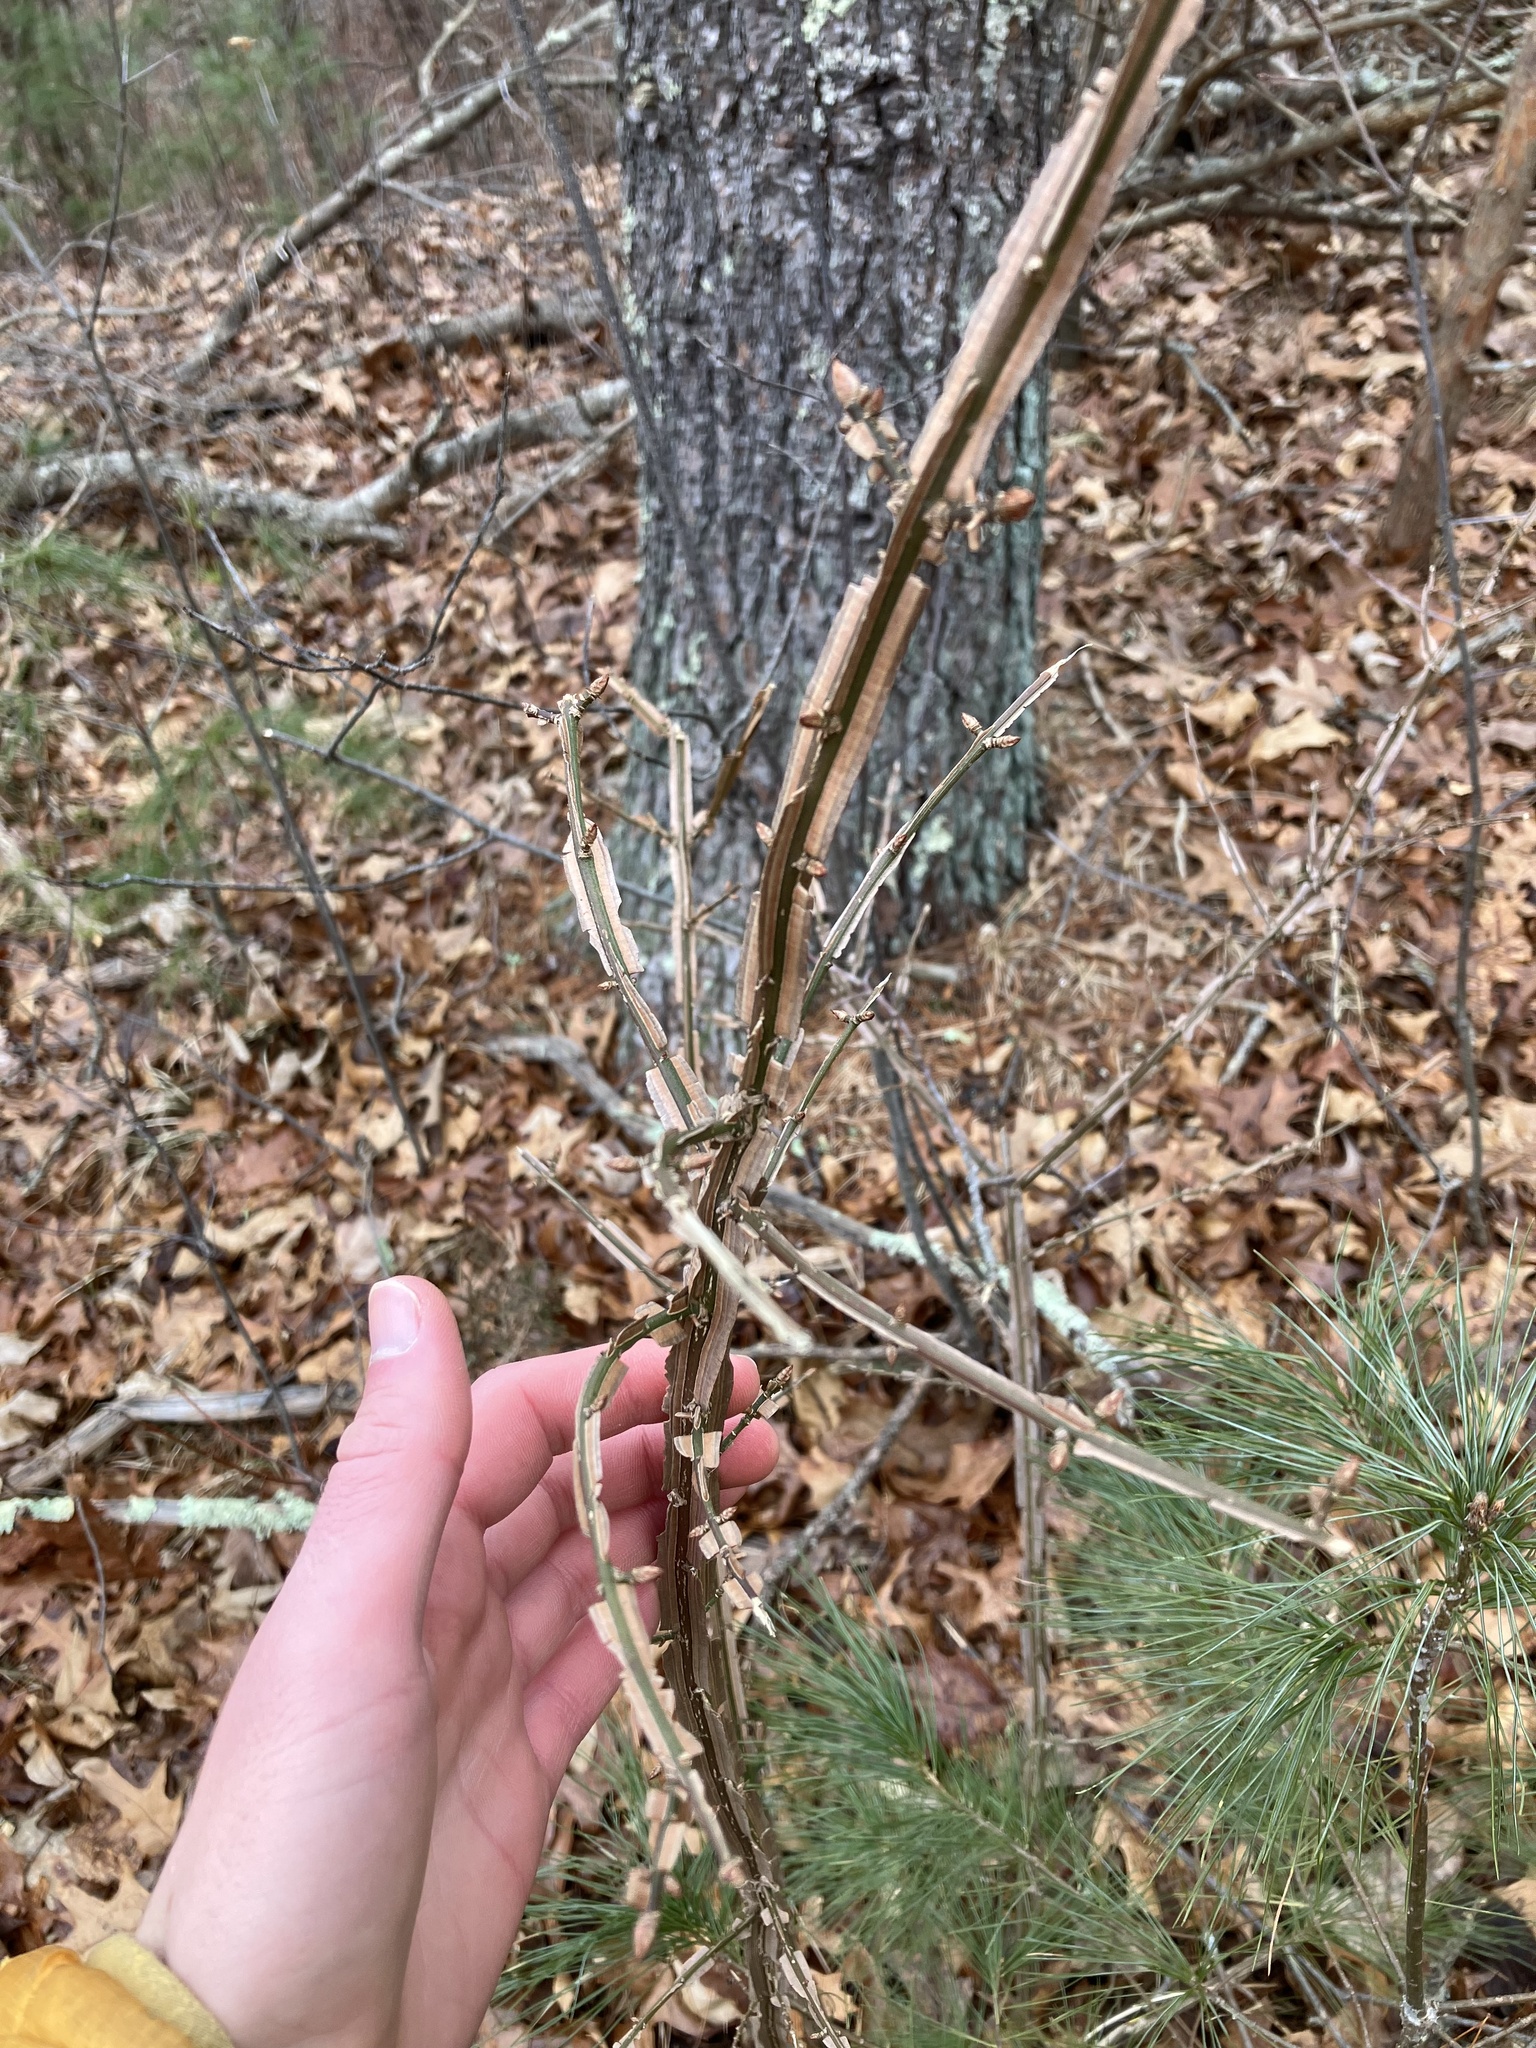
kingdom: Plantae
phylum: Tracheophyta
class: Magnoliopsida
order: Celastrales
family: Celastraceae
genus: Euonymus
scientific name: Euonymus alatus
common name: Winged euonymus
